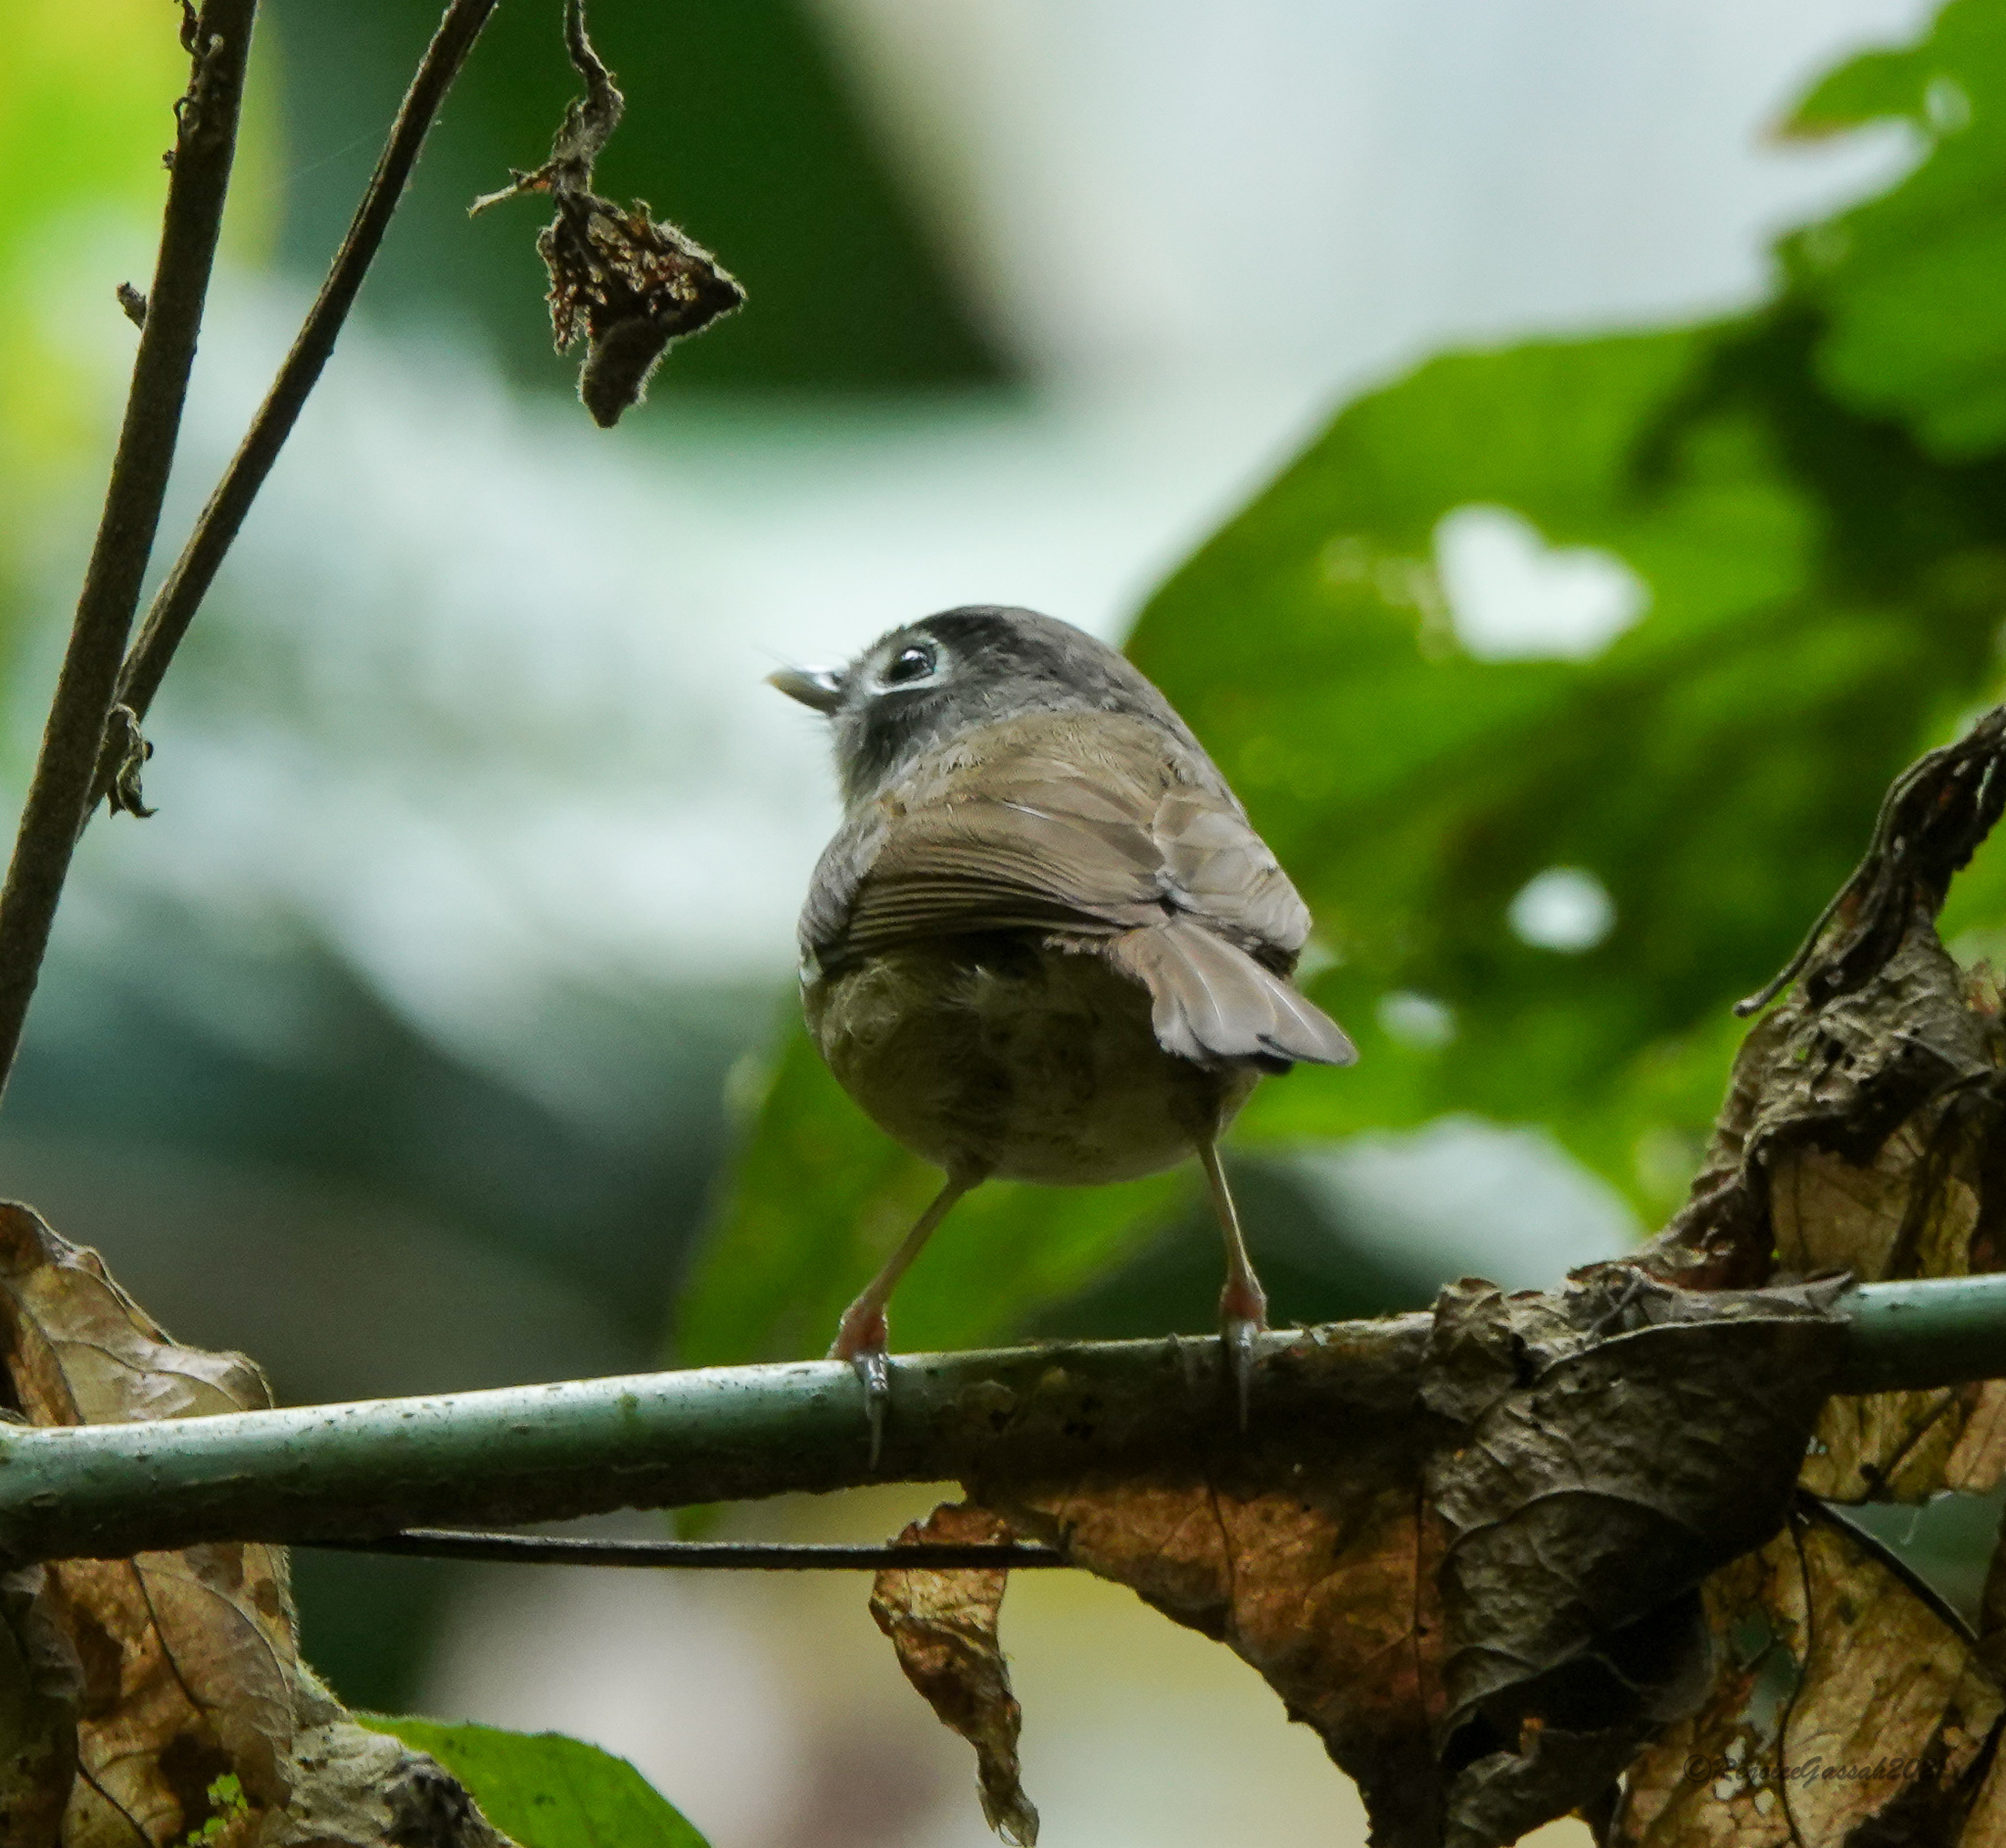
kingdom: Animalia
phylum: Chordata
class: Aves
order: Passeriformes
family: Pellorneidae
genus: Alcippe
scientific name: Alcippe nipalensis
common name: Nepal fulvetta
